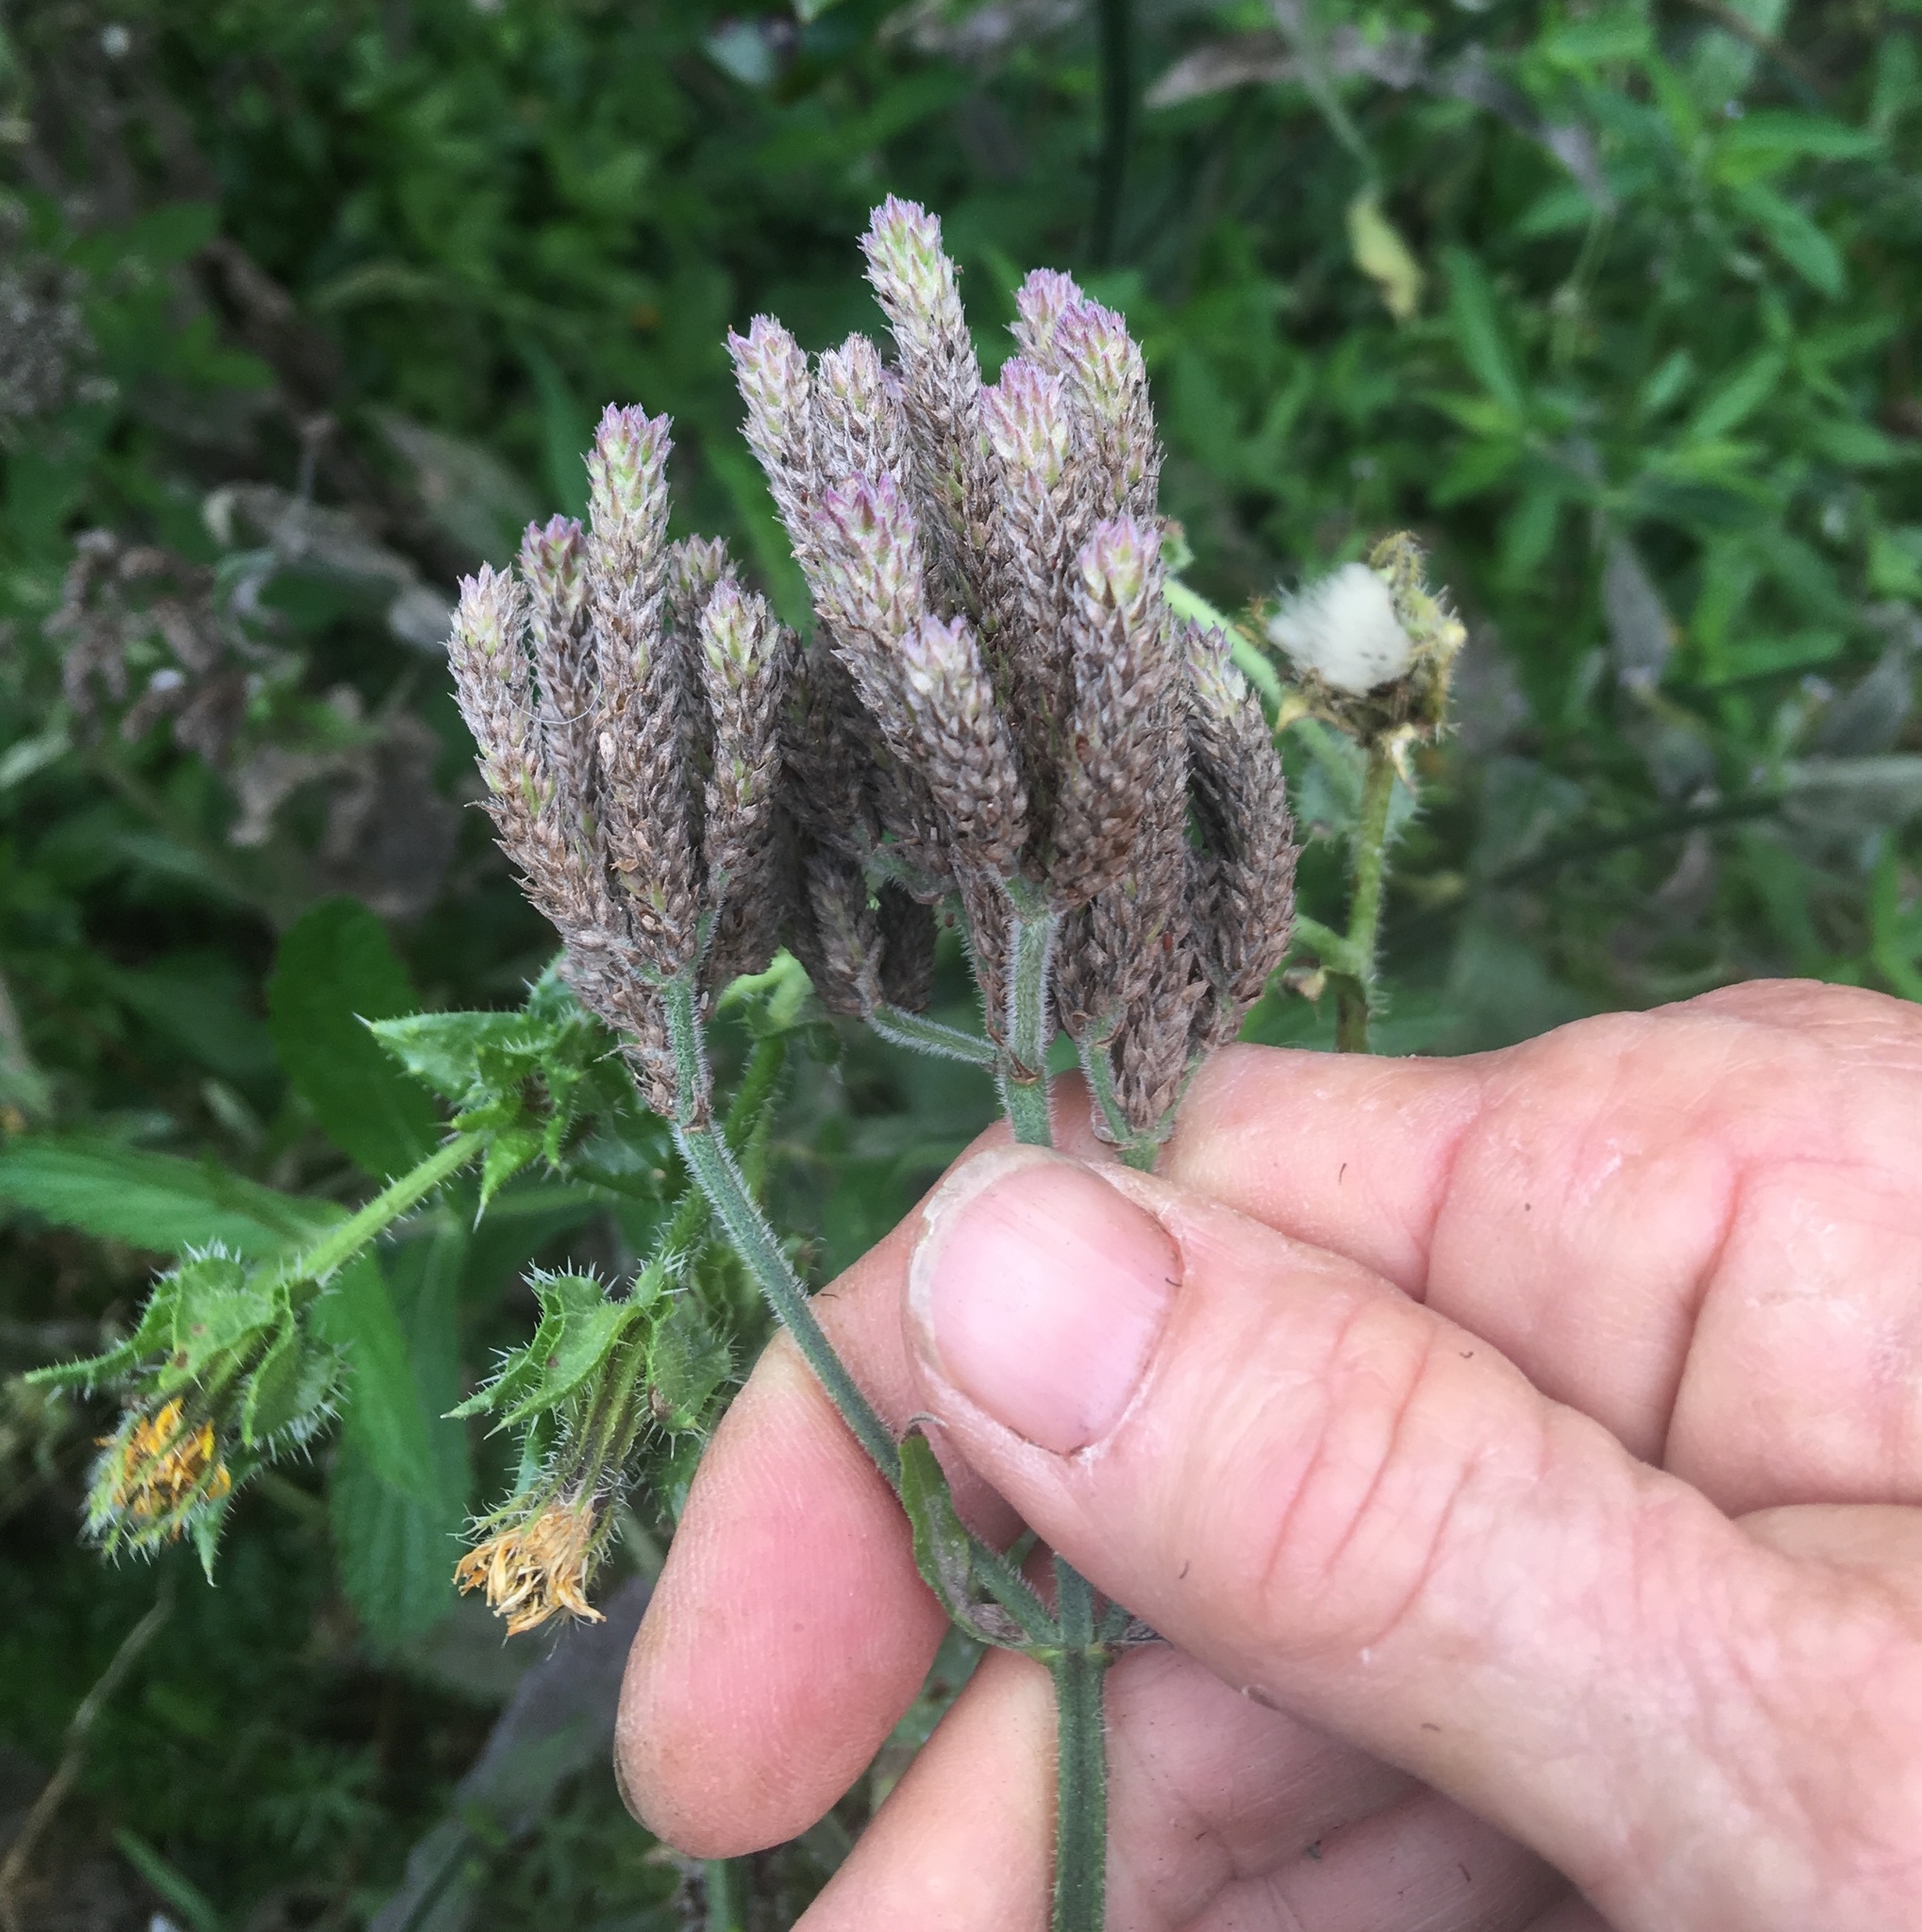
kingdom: Plantae
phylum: Tracheophyta
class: Magnoliopsida
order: Lamiales
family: Verbenaceae
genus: Verbena
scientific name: Verbena incompta
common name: Purpletop vervain
